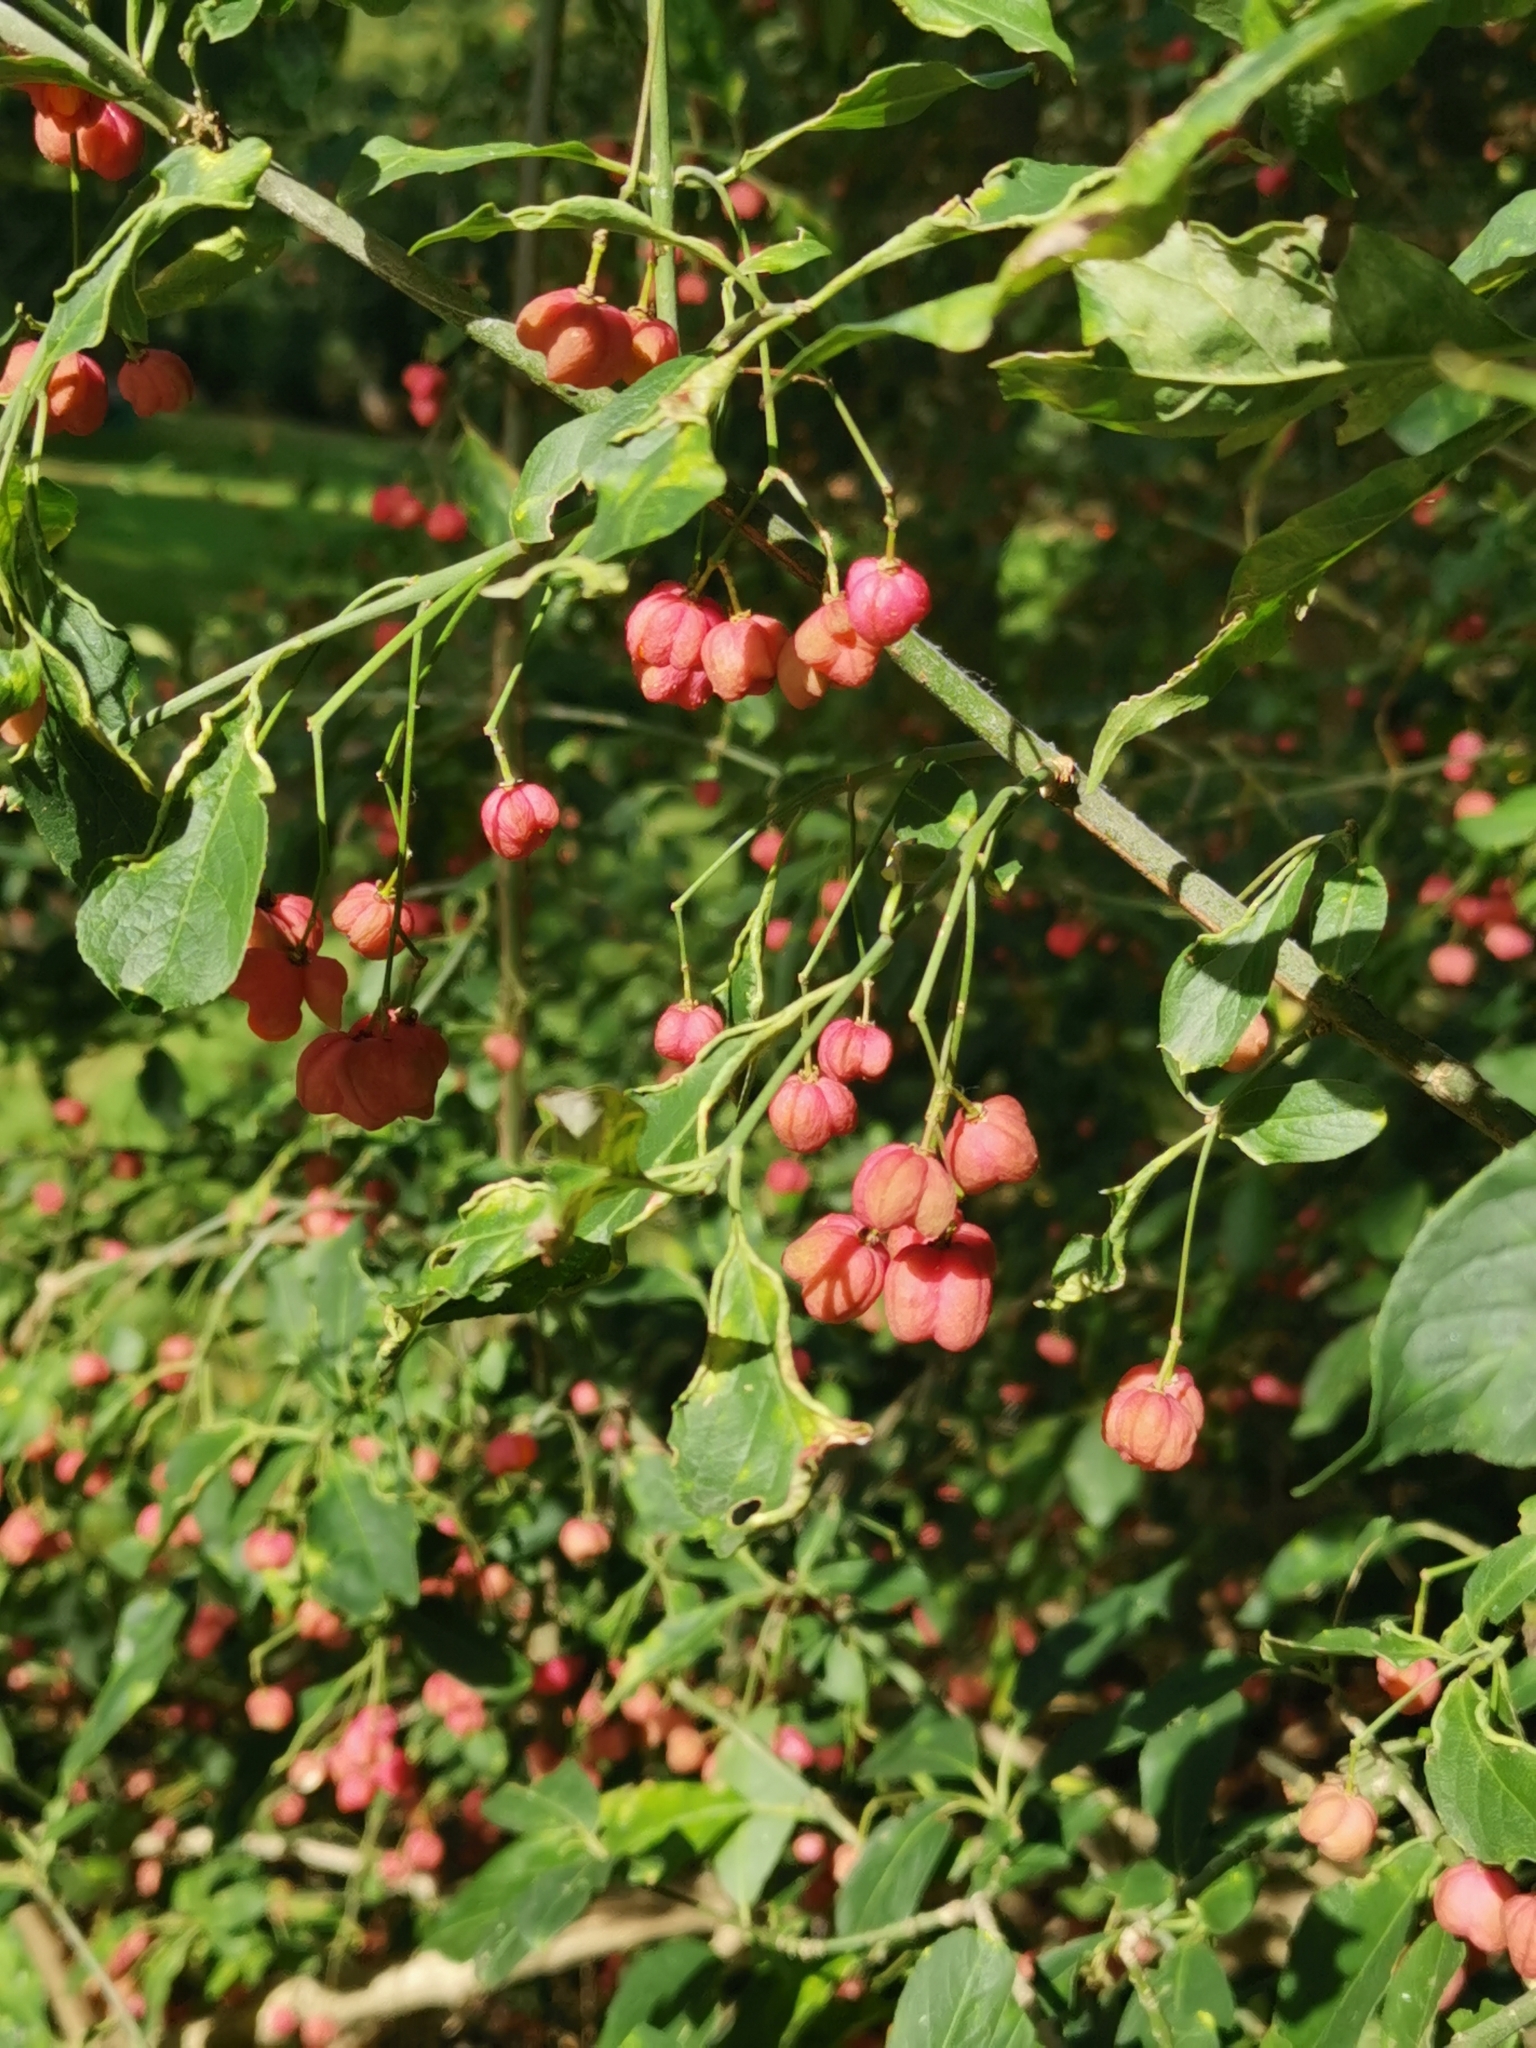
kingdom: Plantae
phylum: Tracheophyta
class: Magnoliopsida
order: Celastrales
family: Celastraceae
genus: Euonymus
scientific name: Euonymus europaeus
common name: Spindle
